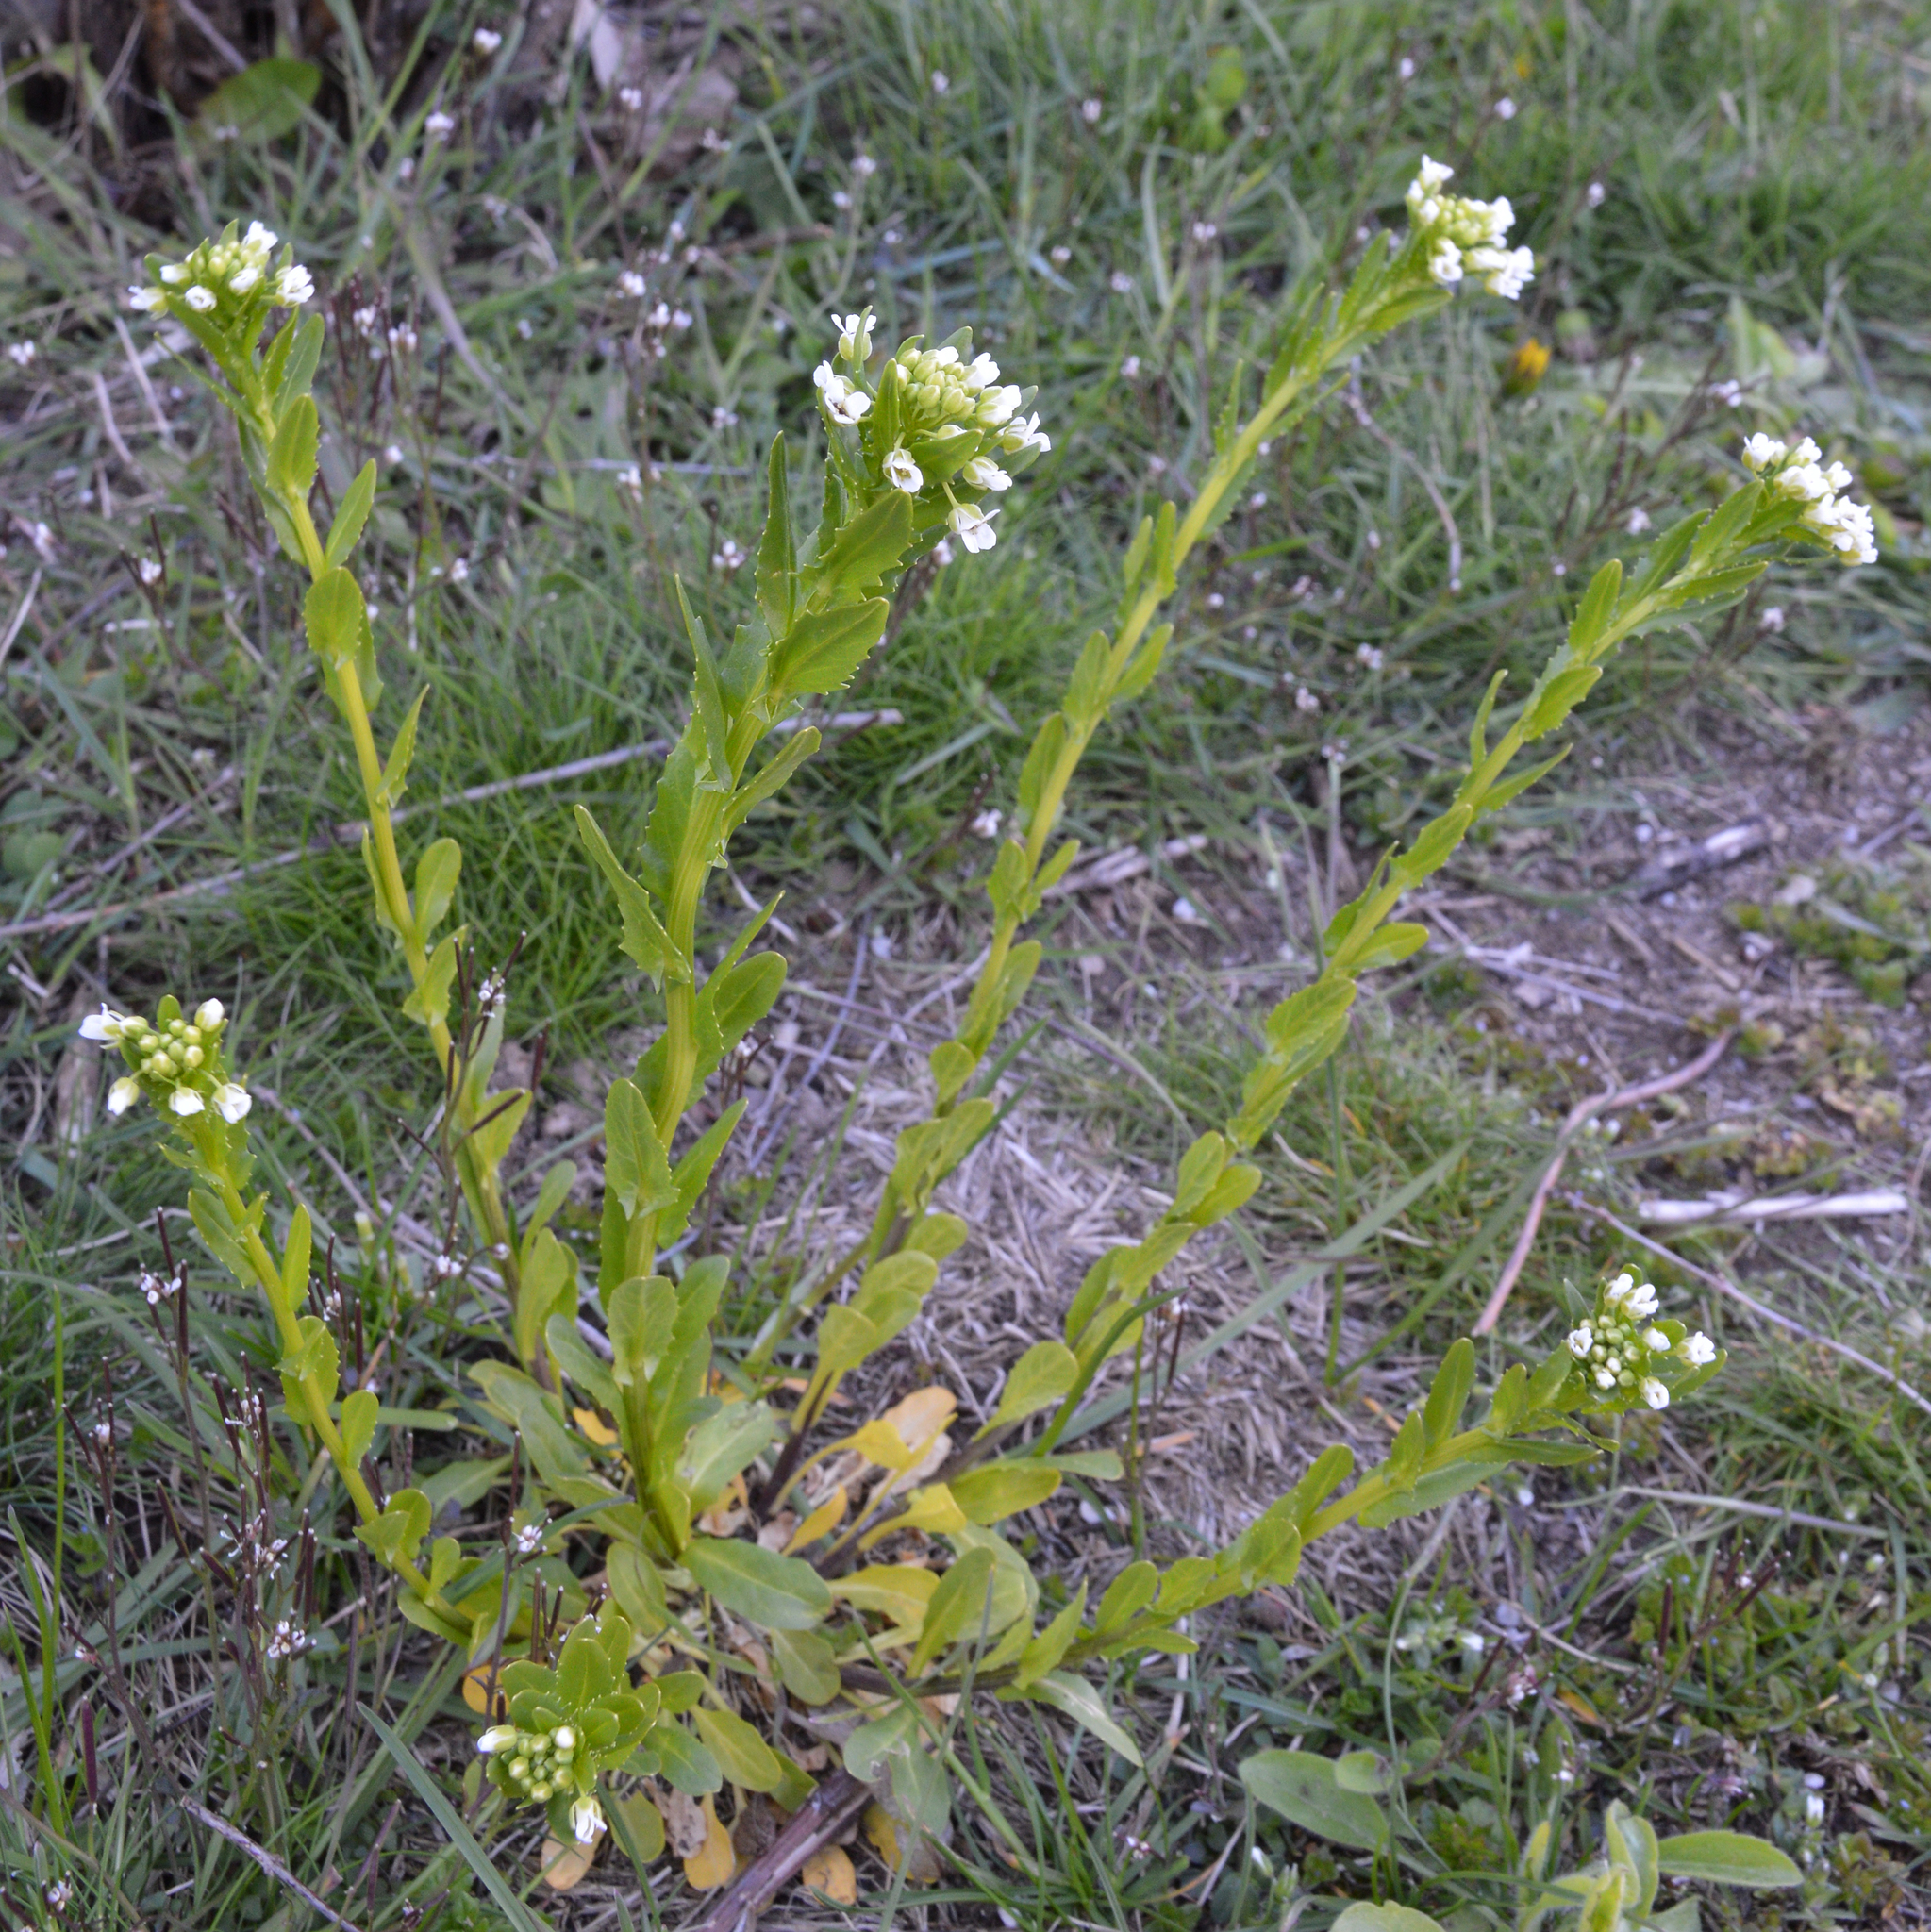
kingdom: Plantae
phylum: Tracheophyta
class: Magnoliopsida
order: Brassicales
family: Brassicaceae
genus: Thlaspi
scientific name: Thlaspi arvense
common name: Field pennycress
